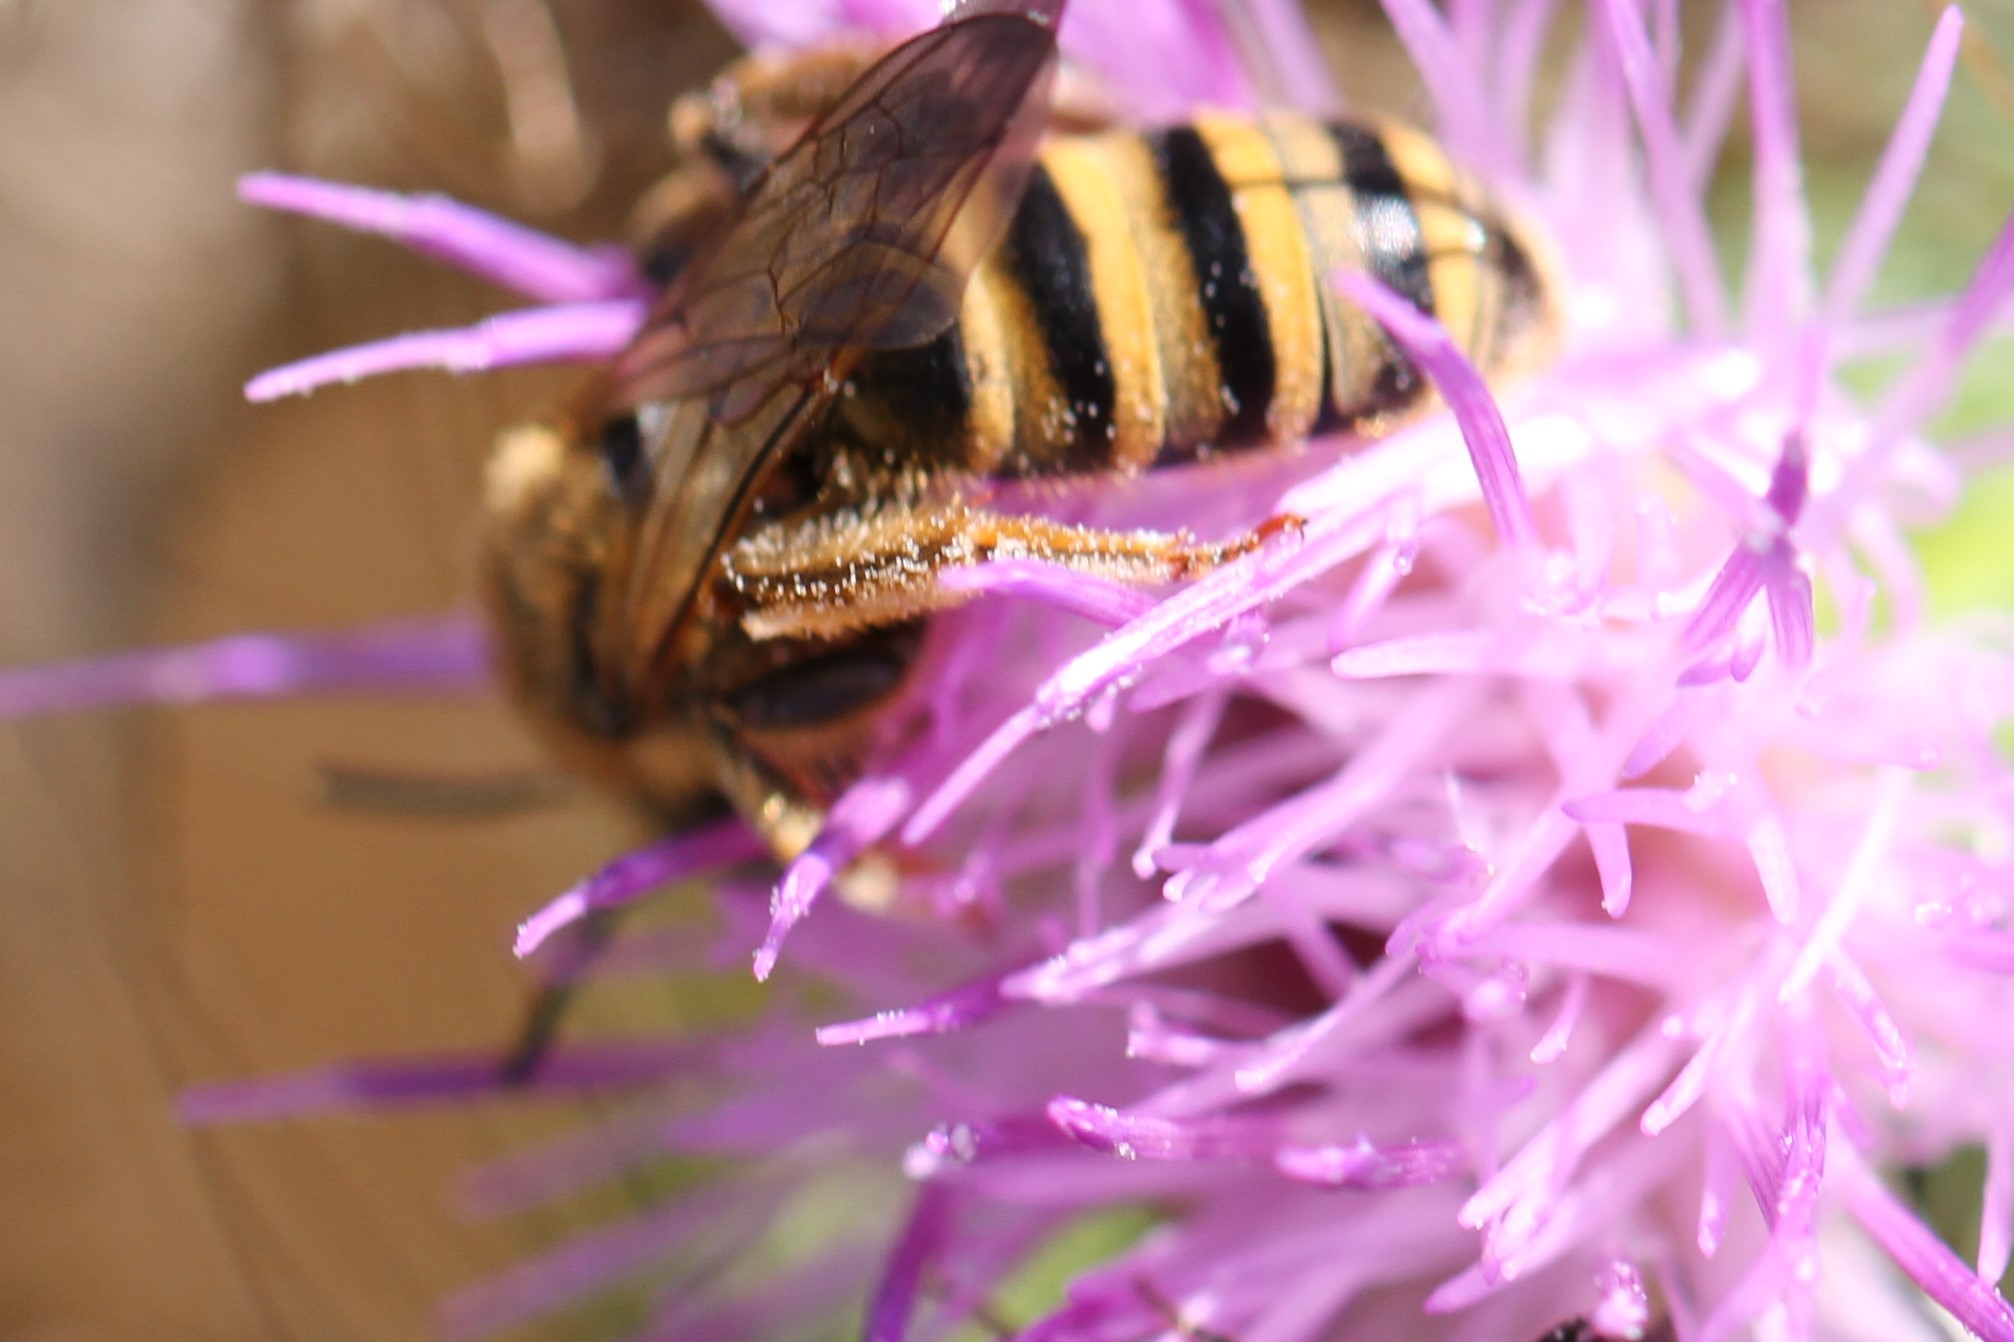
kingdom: Animalia
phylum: Arthropoda
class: Insecta
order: Hymenoptera
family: Halictidae
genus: Halictus
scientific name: Halictus scabiosae
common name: Great banded furrow bee
